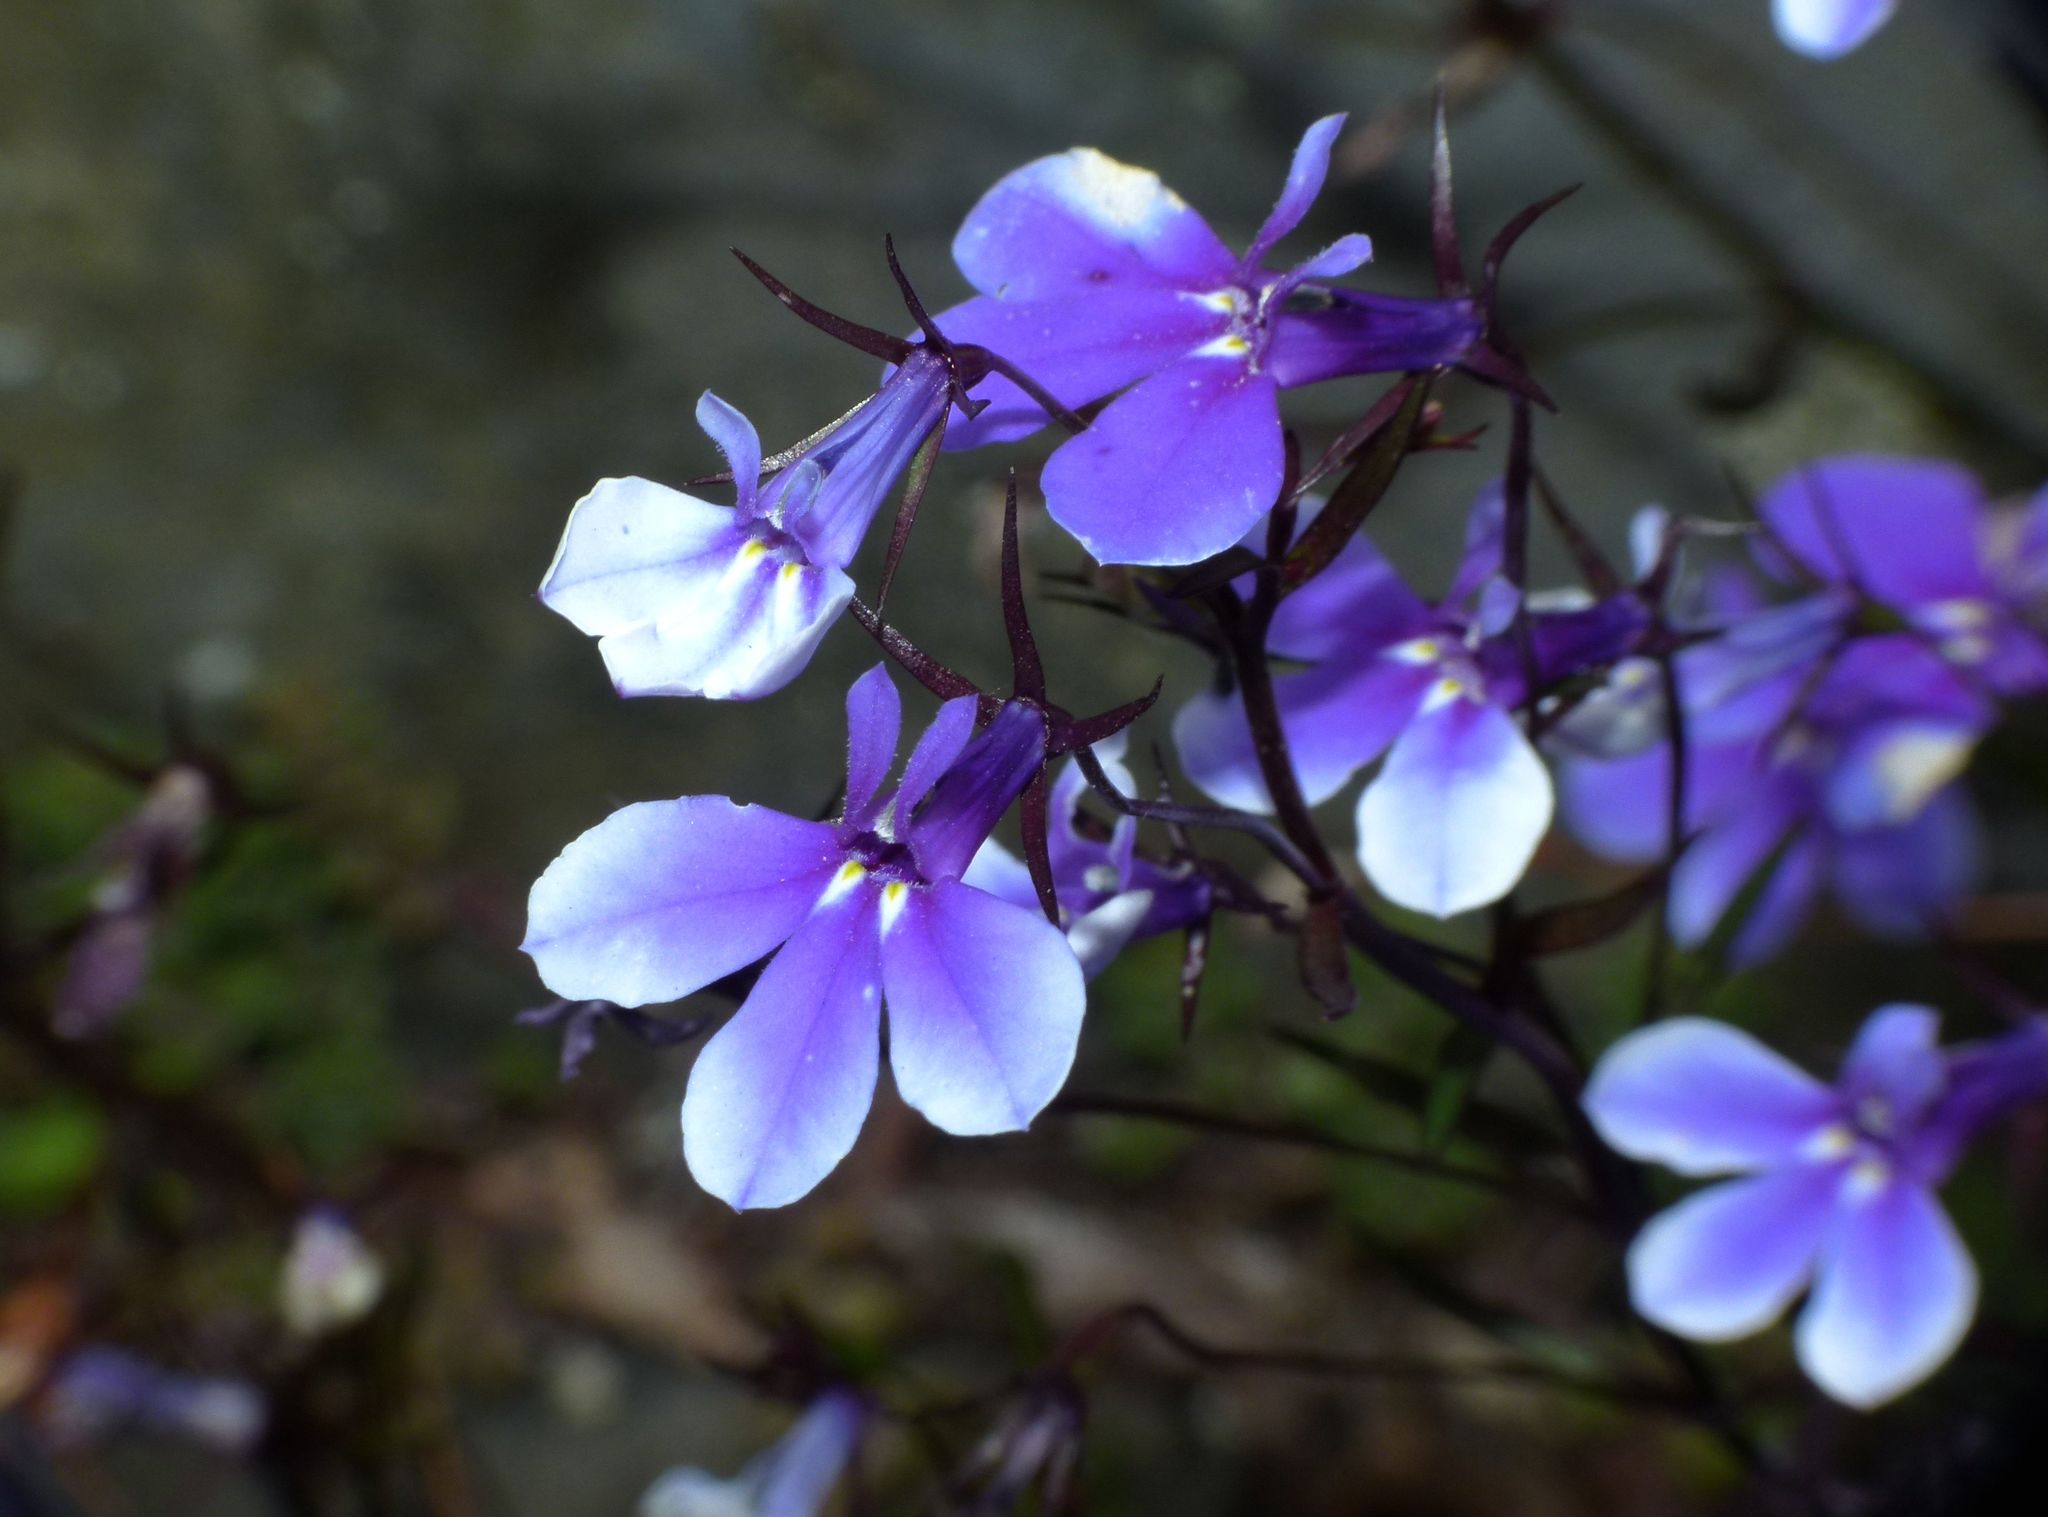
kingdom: Plantae
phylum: Tracheophyta
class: Magnoliopsida
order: Asterales
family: Campanulaceae
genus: Lobelia
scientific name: Lobelia erinus
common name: Edging lobelia
